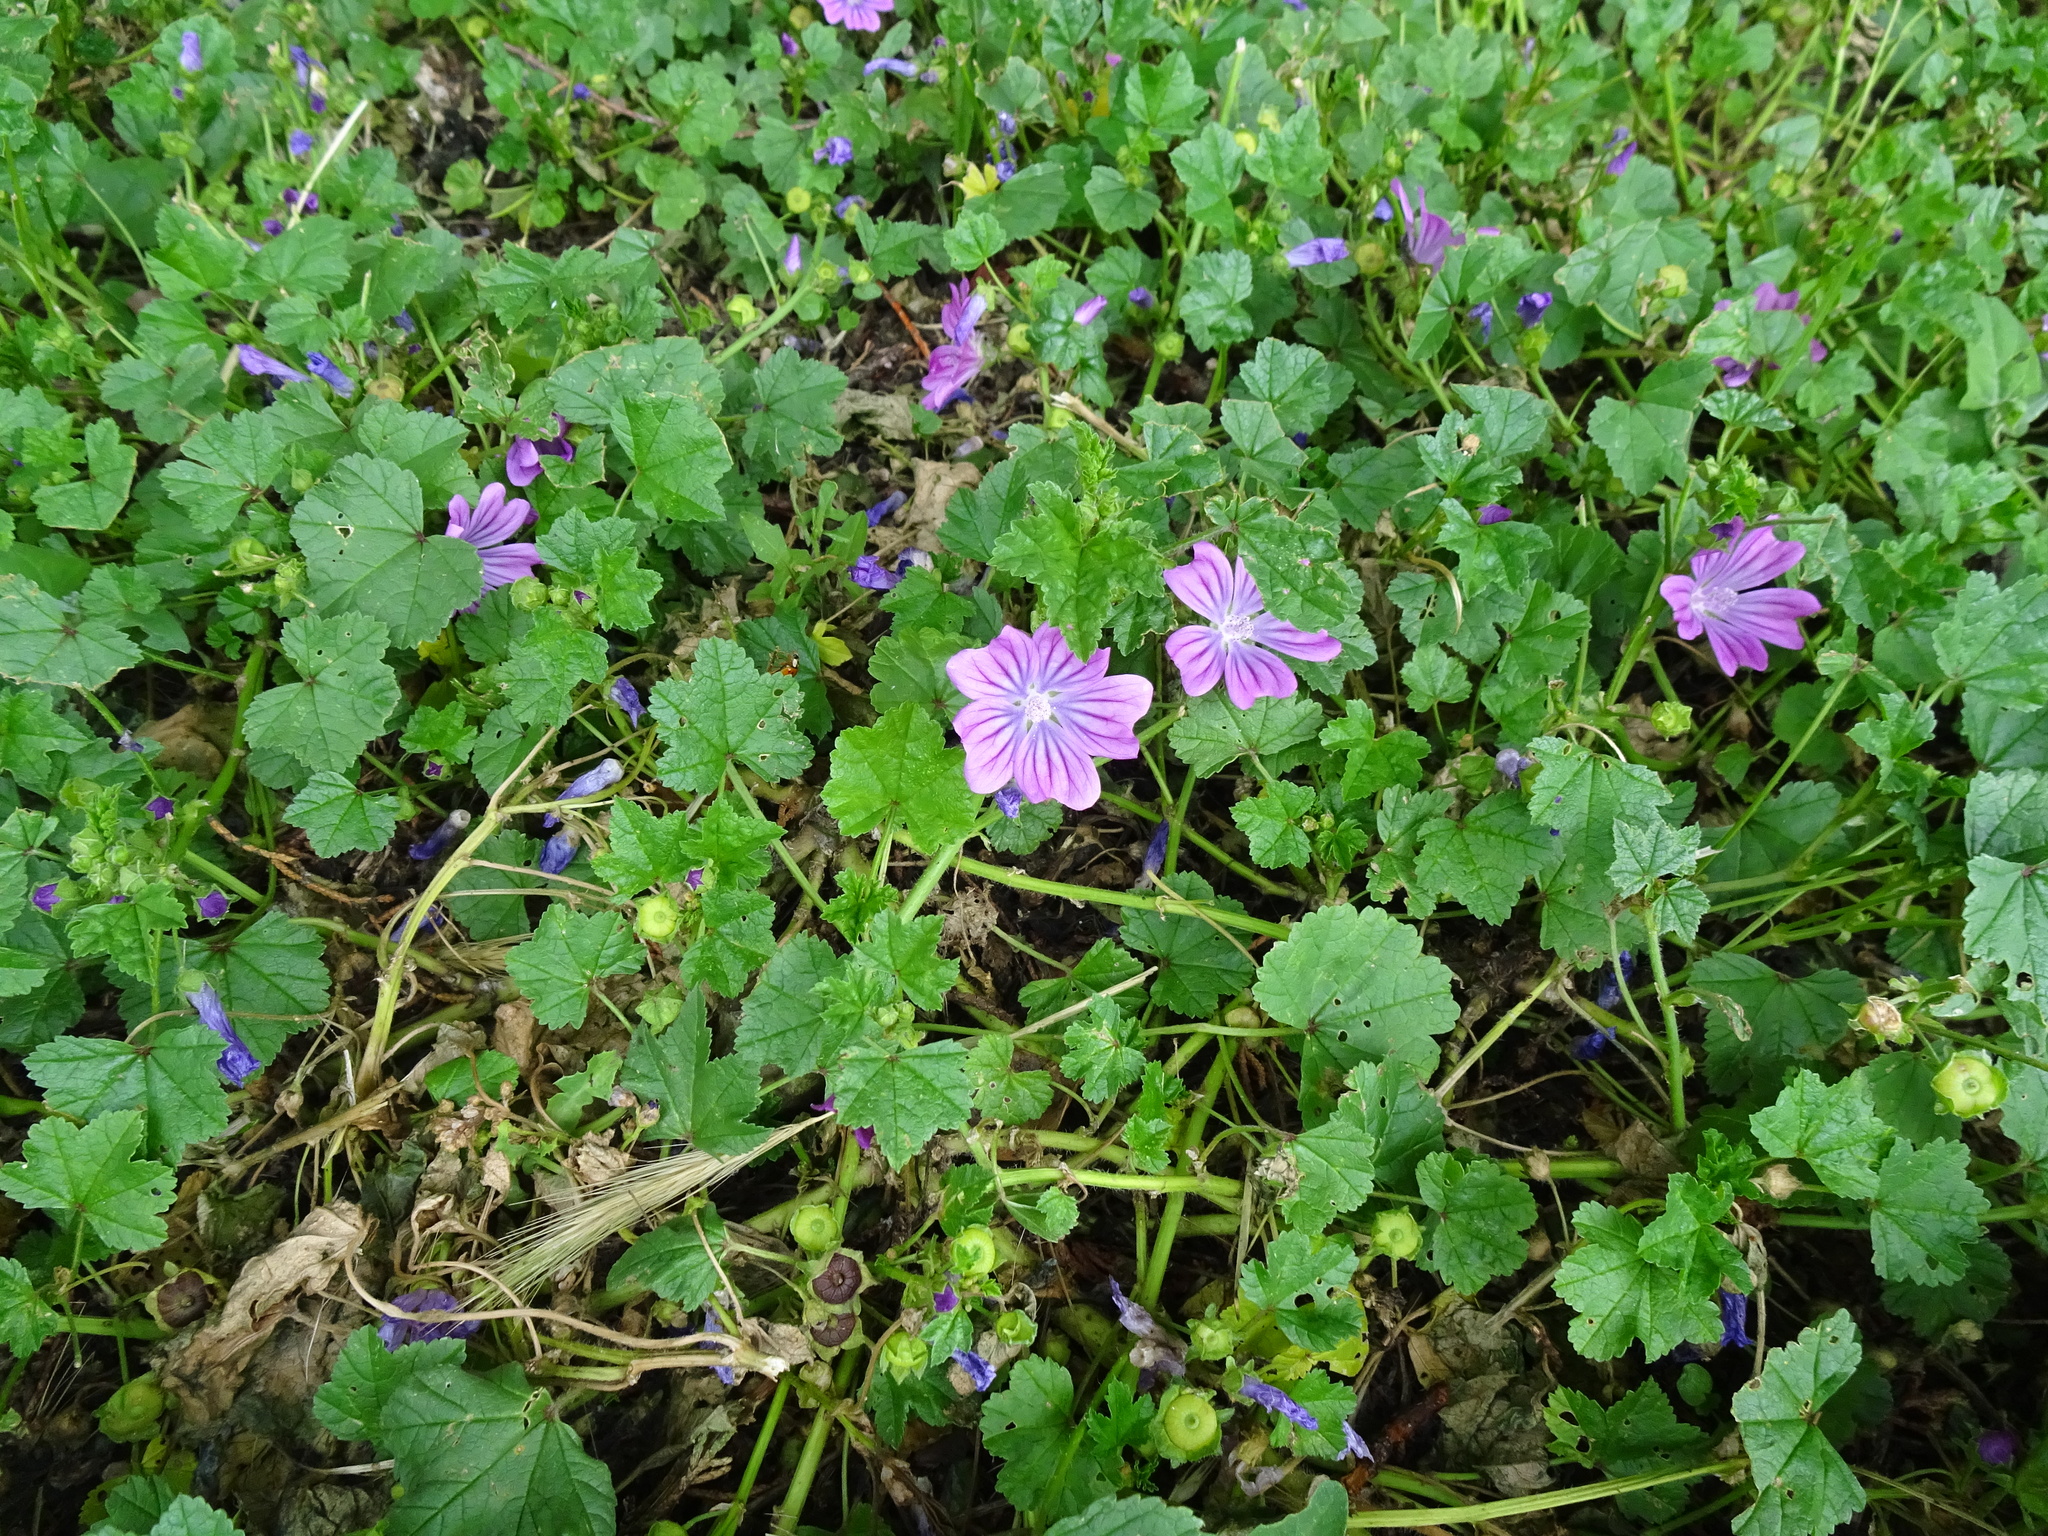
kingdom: Plantae
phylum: Tracheophyta
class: Magnoliopsida
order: Malvales
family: Malvaceae
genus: Malva
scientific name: Malva sylvestris
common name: Common mallow
